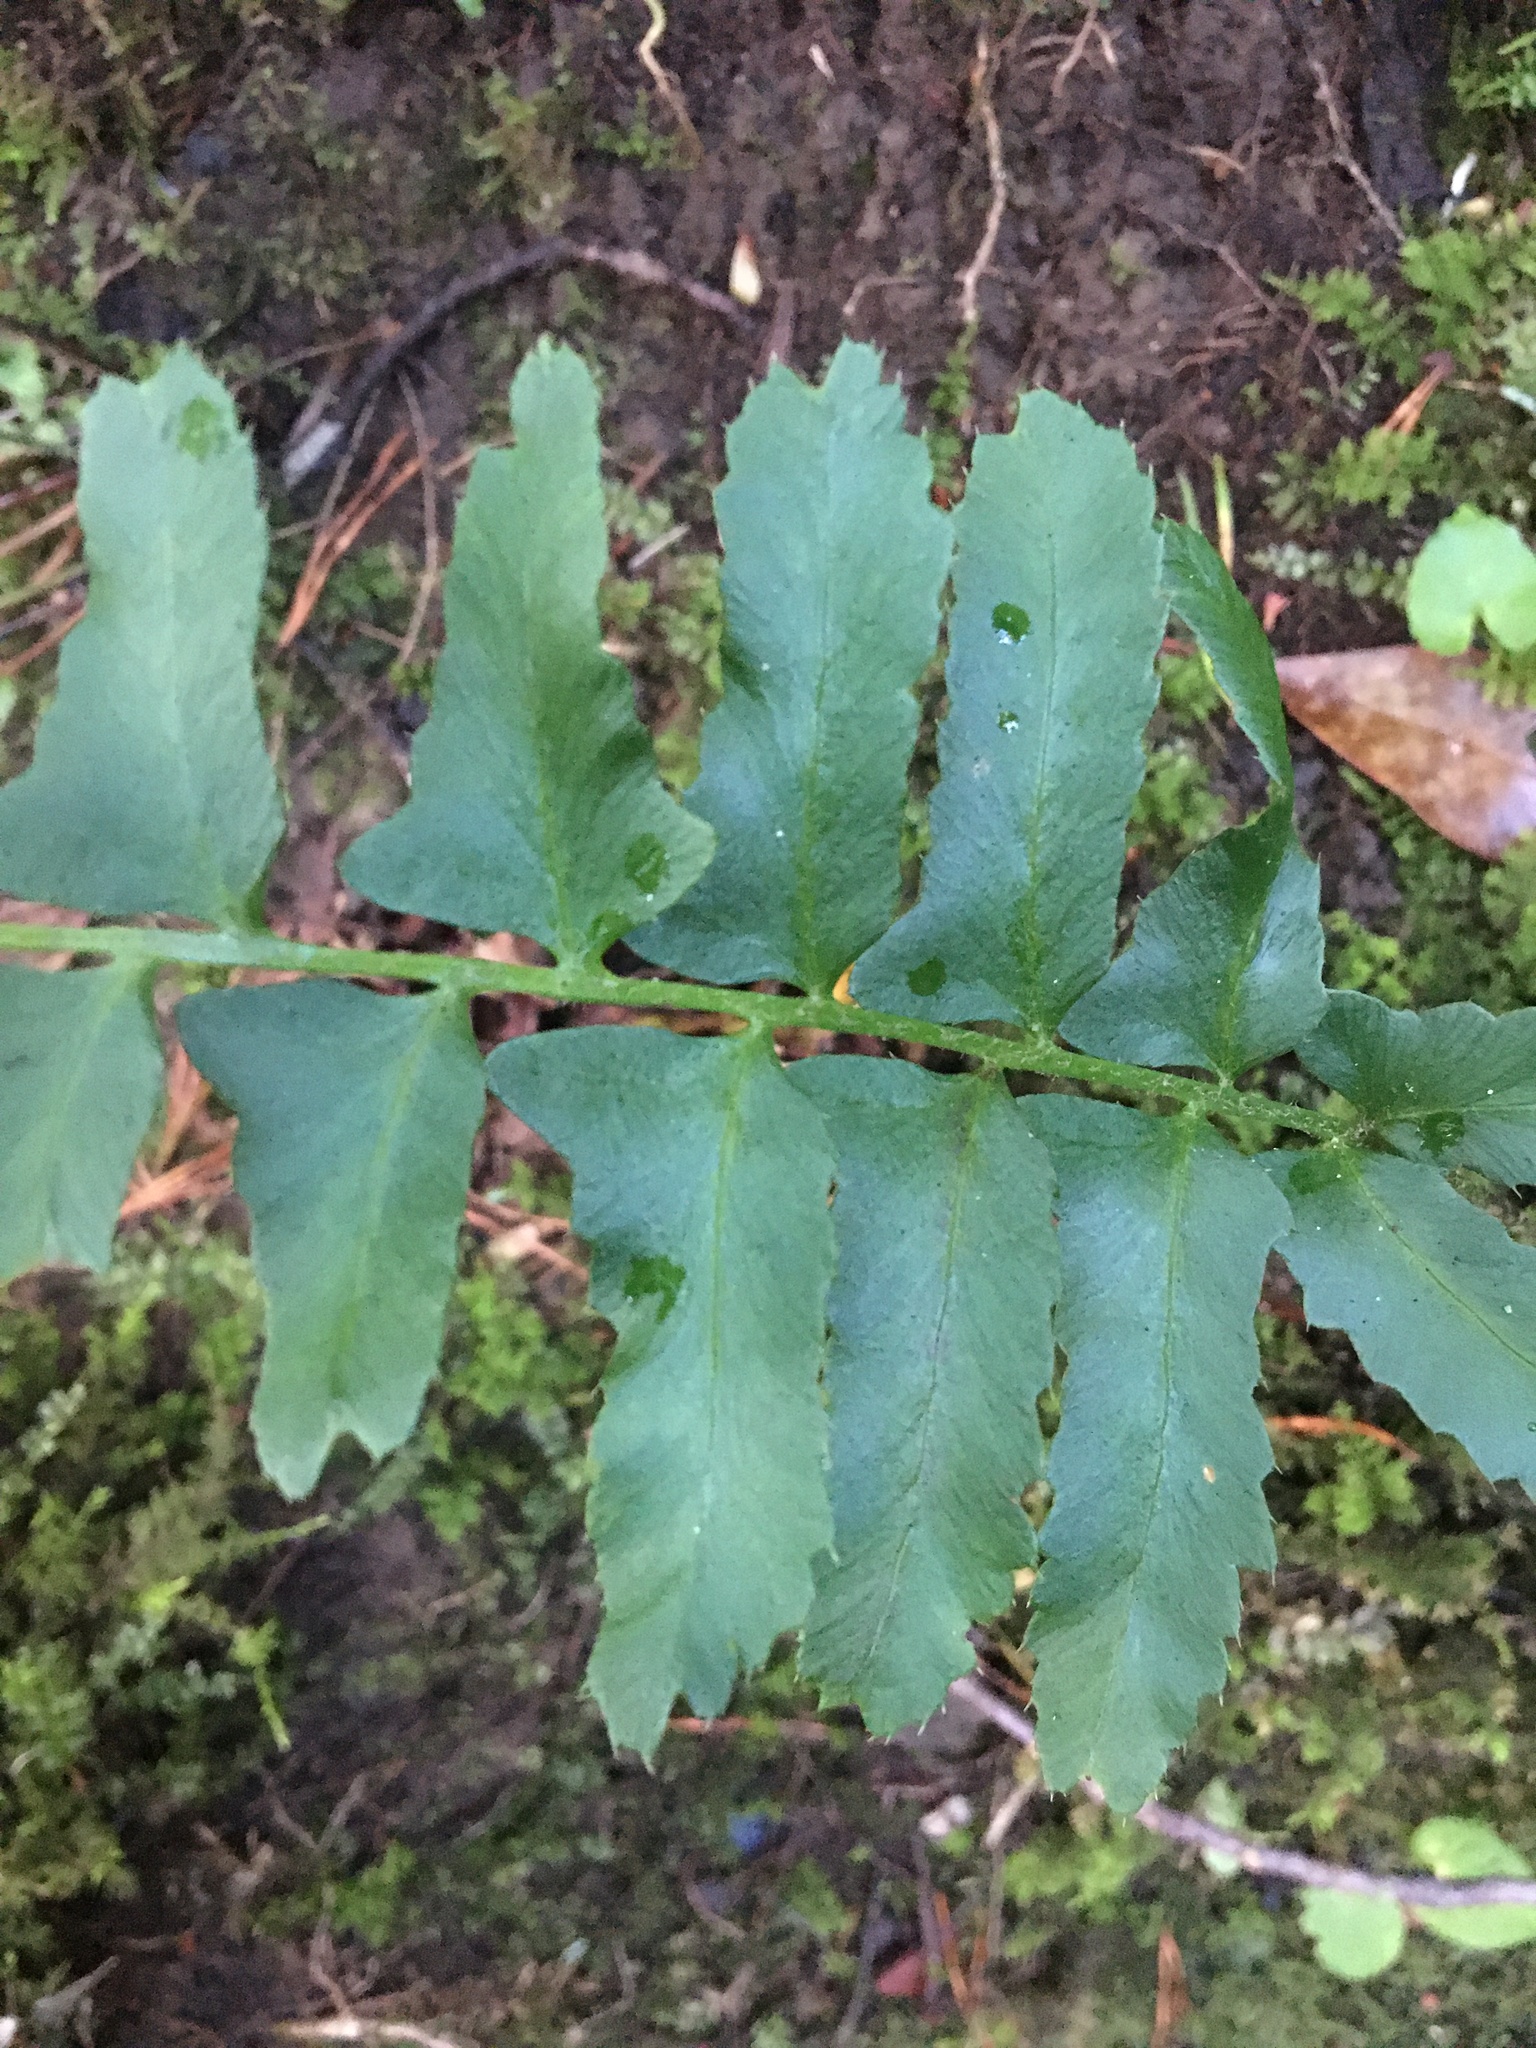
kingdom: Plantae
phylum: Tracheophyta
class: Polypodiopsida
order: Polypodiales
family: Dryopteridaceae
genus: Polystichum
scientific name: Polystichum acrostichoides
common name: Christmas fern
